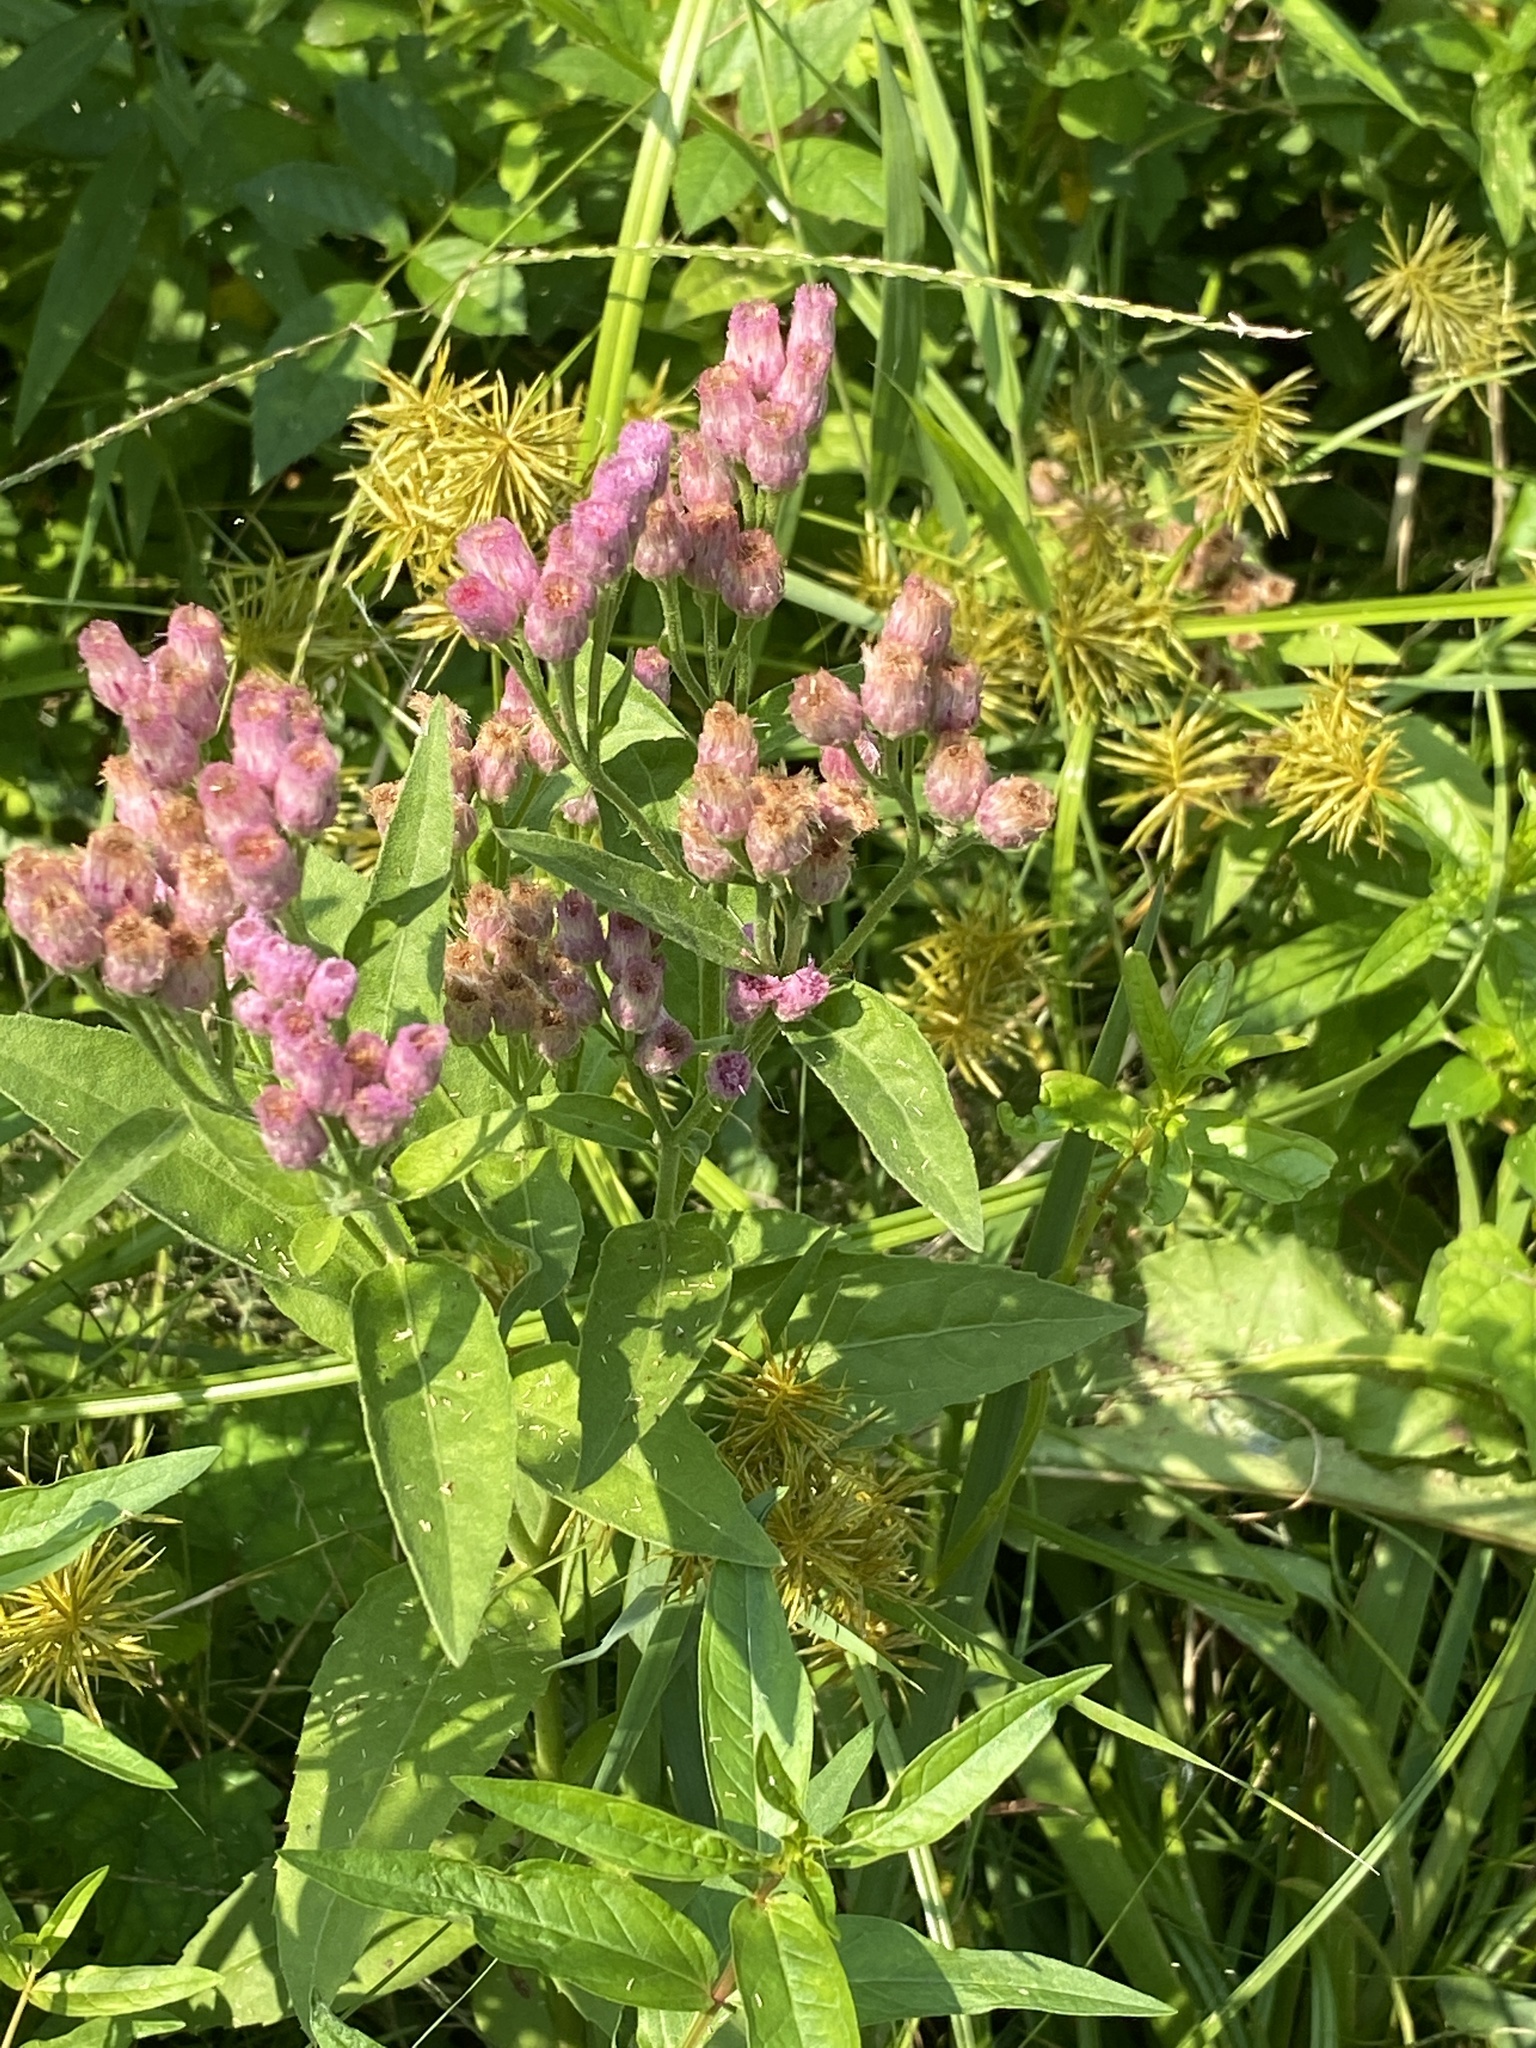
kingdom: Plantae
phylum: Tracheophyta
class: Magnoliopsida
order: Asterales
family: Asteraceae
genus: Pluchea
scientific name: Pluchea odorata
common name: Saltmarsh fleabane
